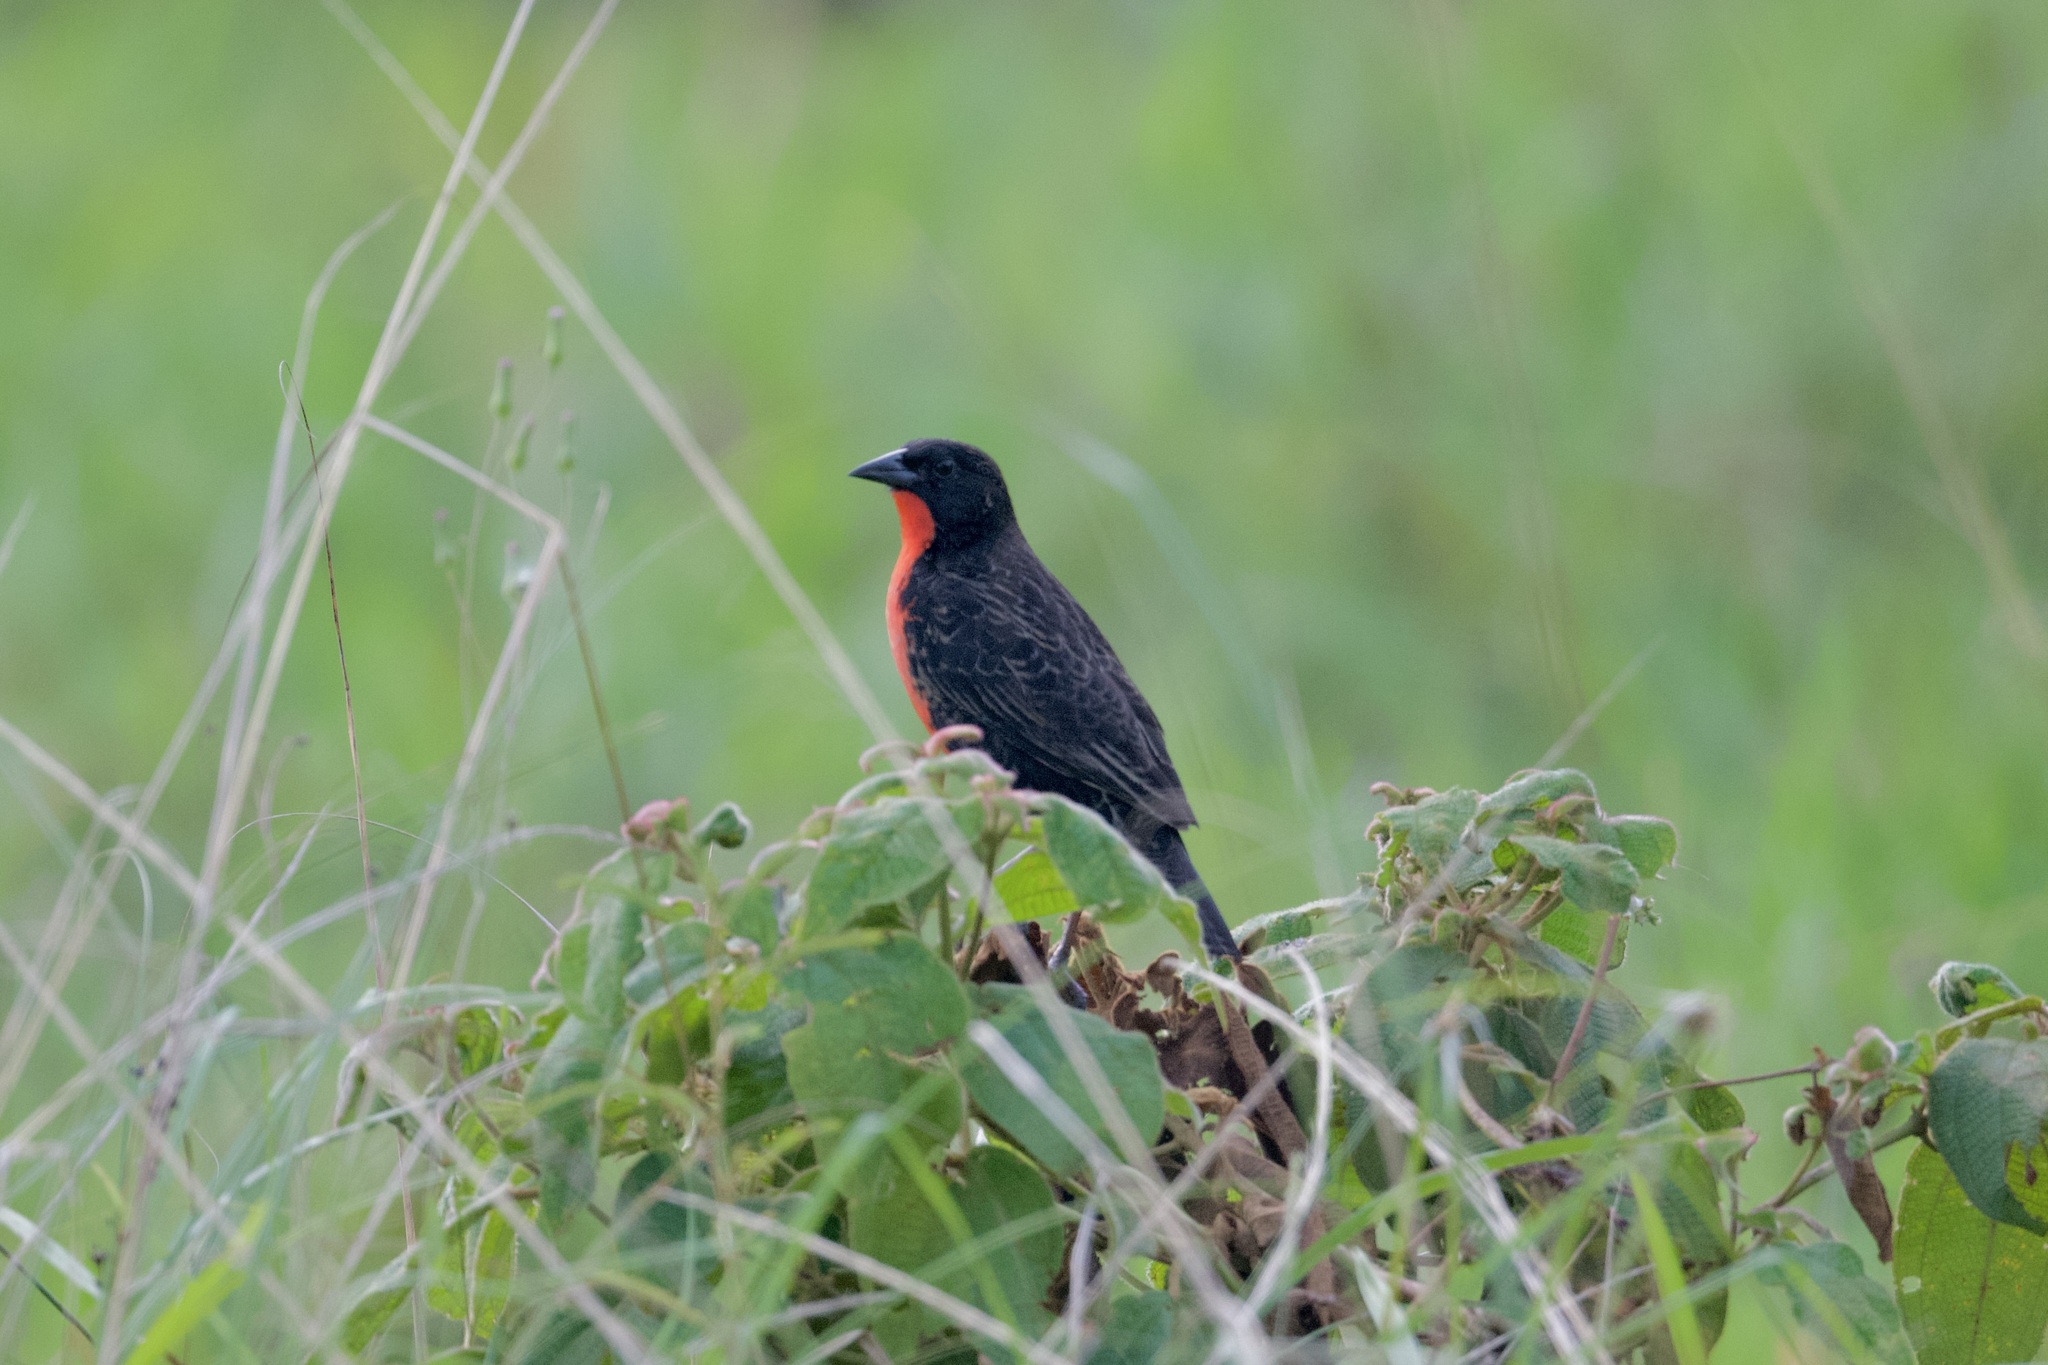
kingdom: Animalia
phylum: Chordata
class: Aves
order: Passeriformes
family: Icteridae
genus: Sturnella
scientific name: Sturnella militaris
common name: Red-breasted blackbird
